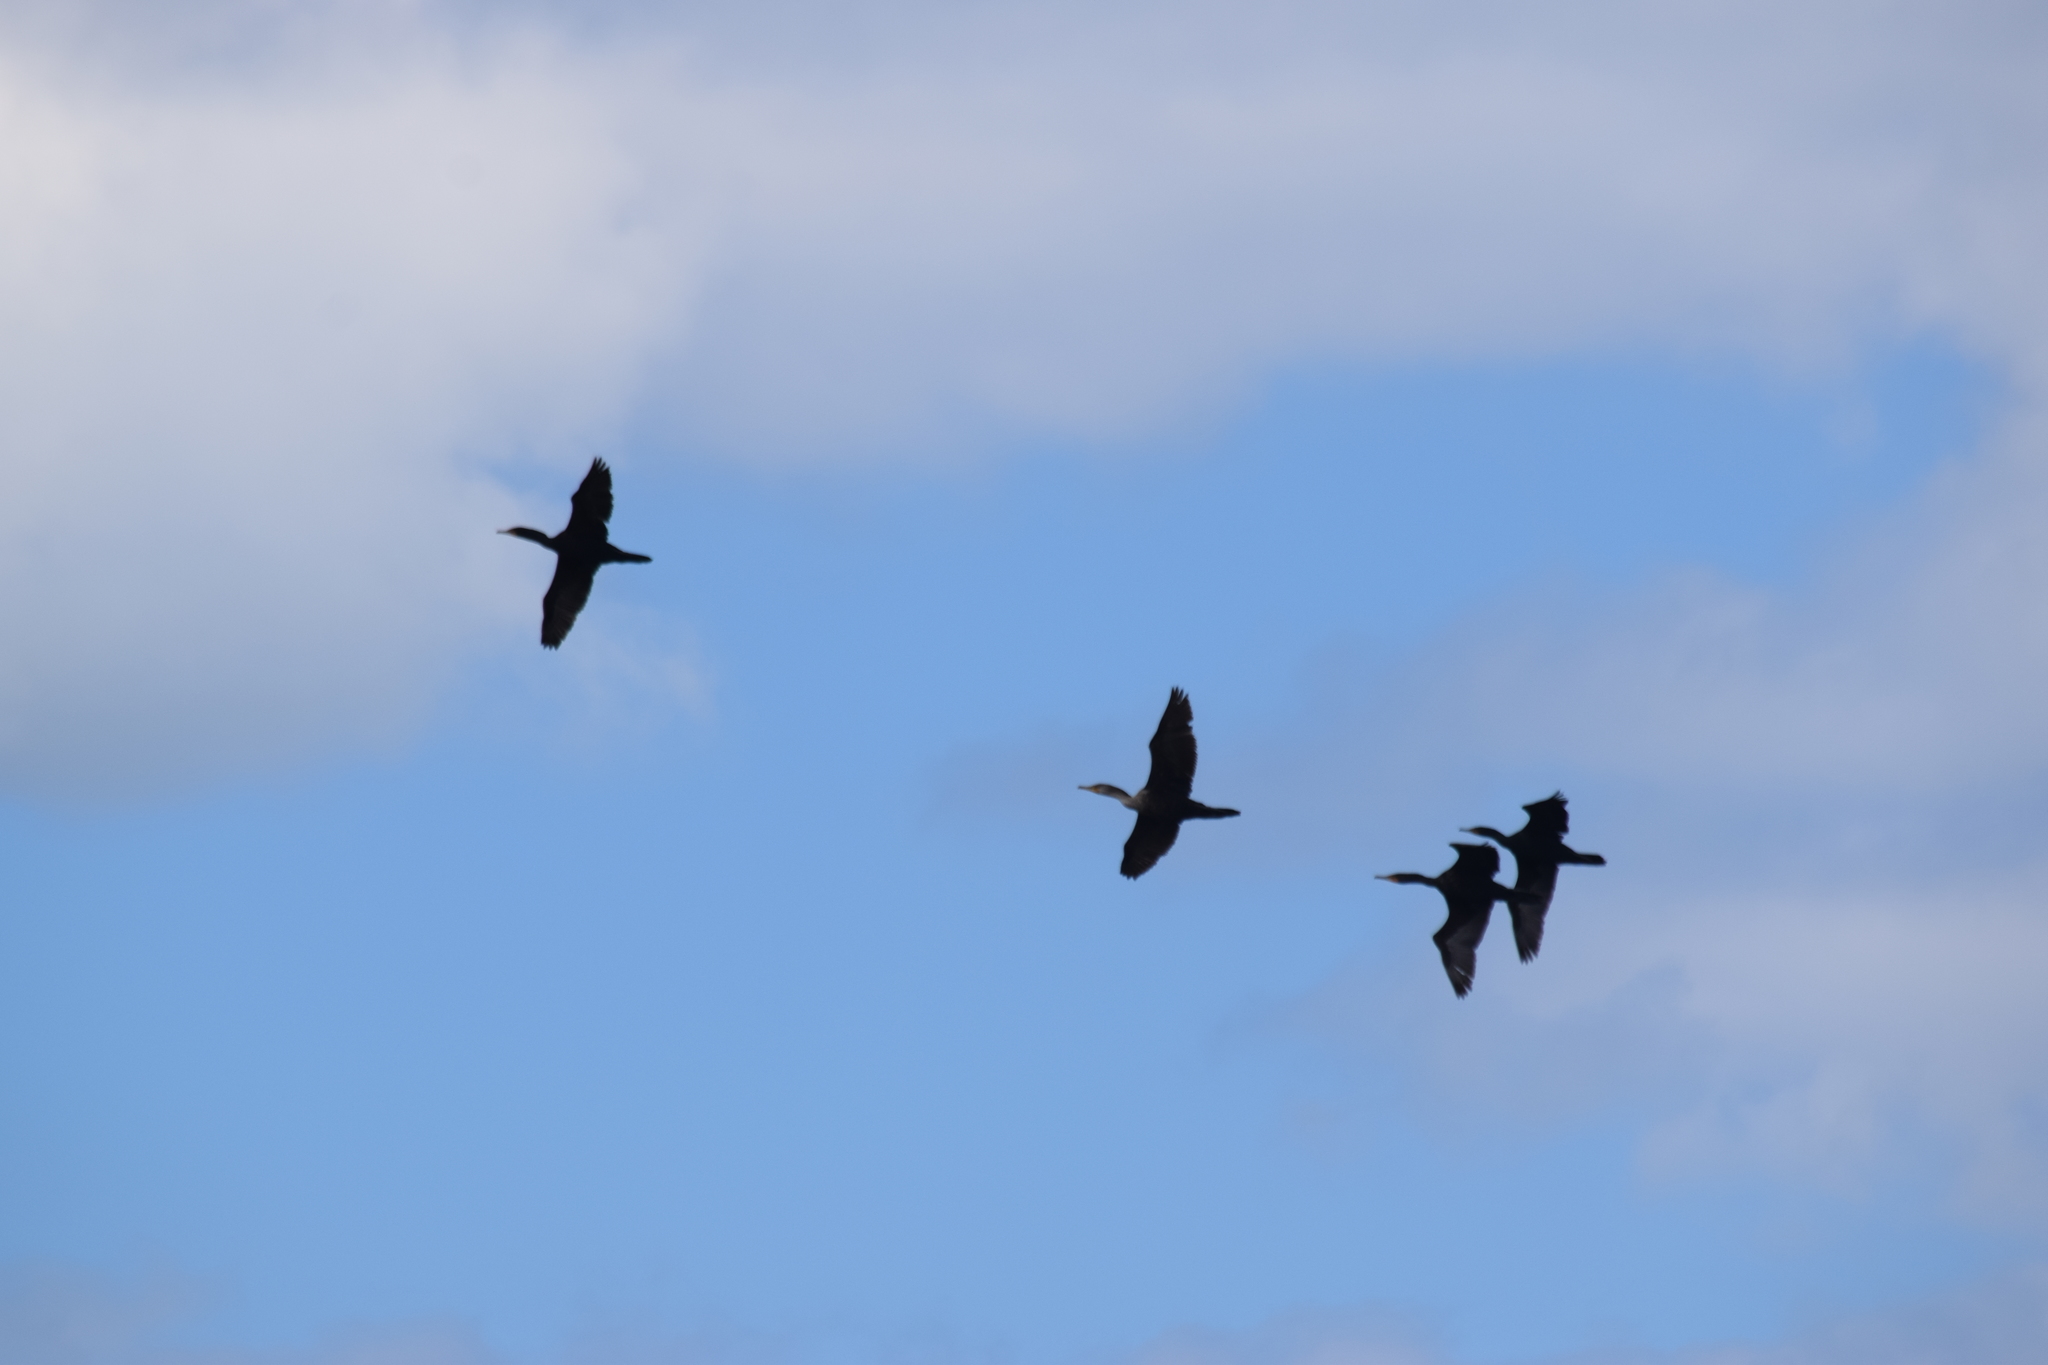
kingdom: Animalia
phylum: Chordata
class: Aves
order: Suliformes
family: Phalacrocoracidae
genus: Phalacrocorax
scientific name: Phalacrocorax auritus
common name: Double-crested cormorant
